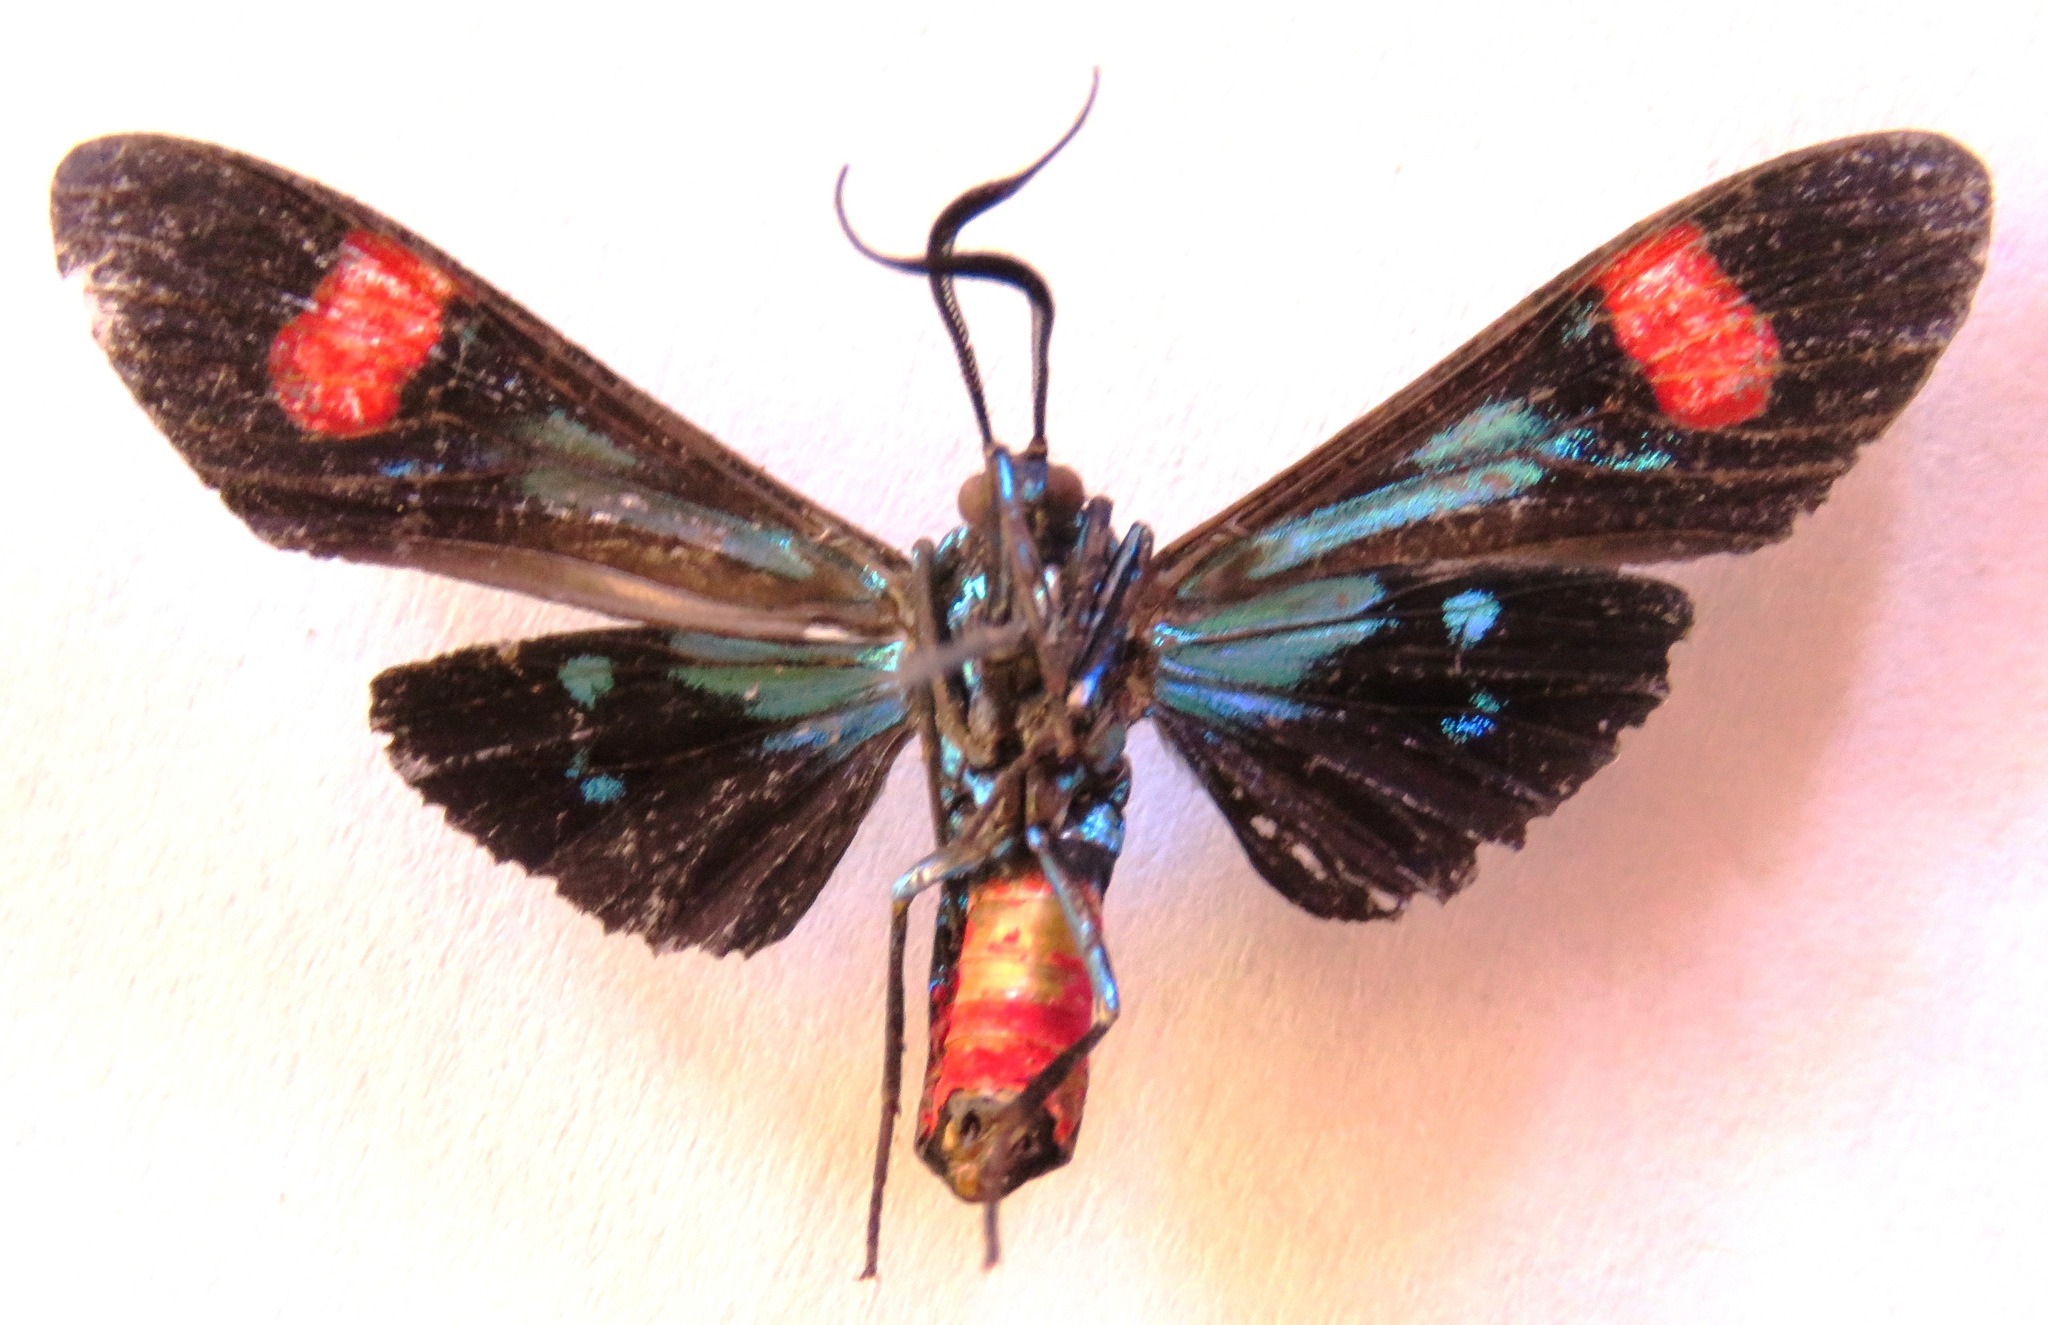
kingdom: Animalia
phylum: Arthropoda
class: Insecta
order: Lepidoptera
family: Erebidae
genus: Belemnia
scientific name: Belemnia inaurata
